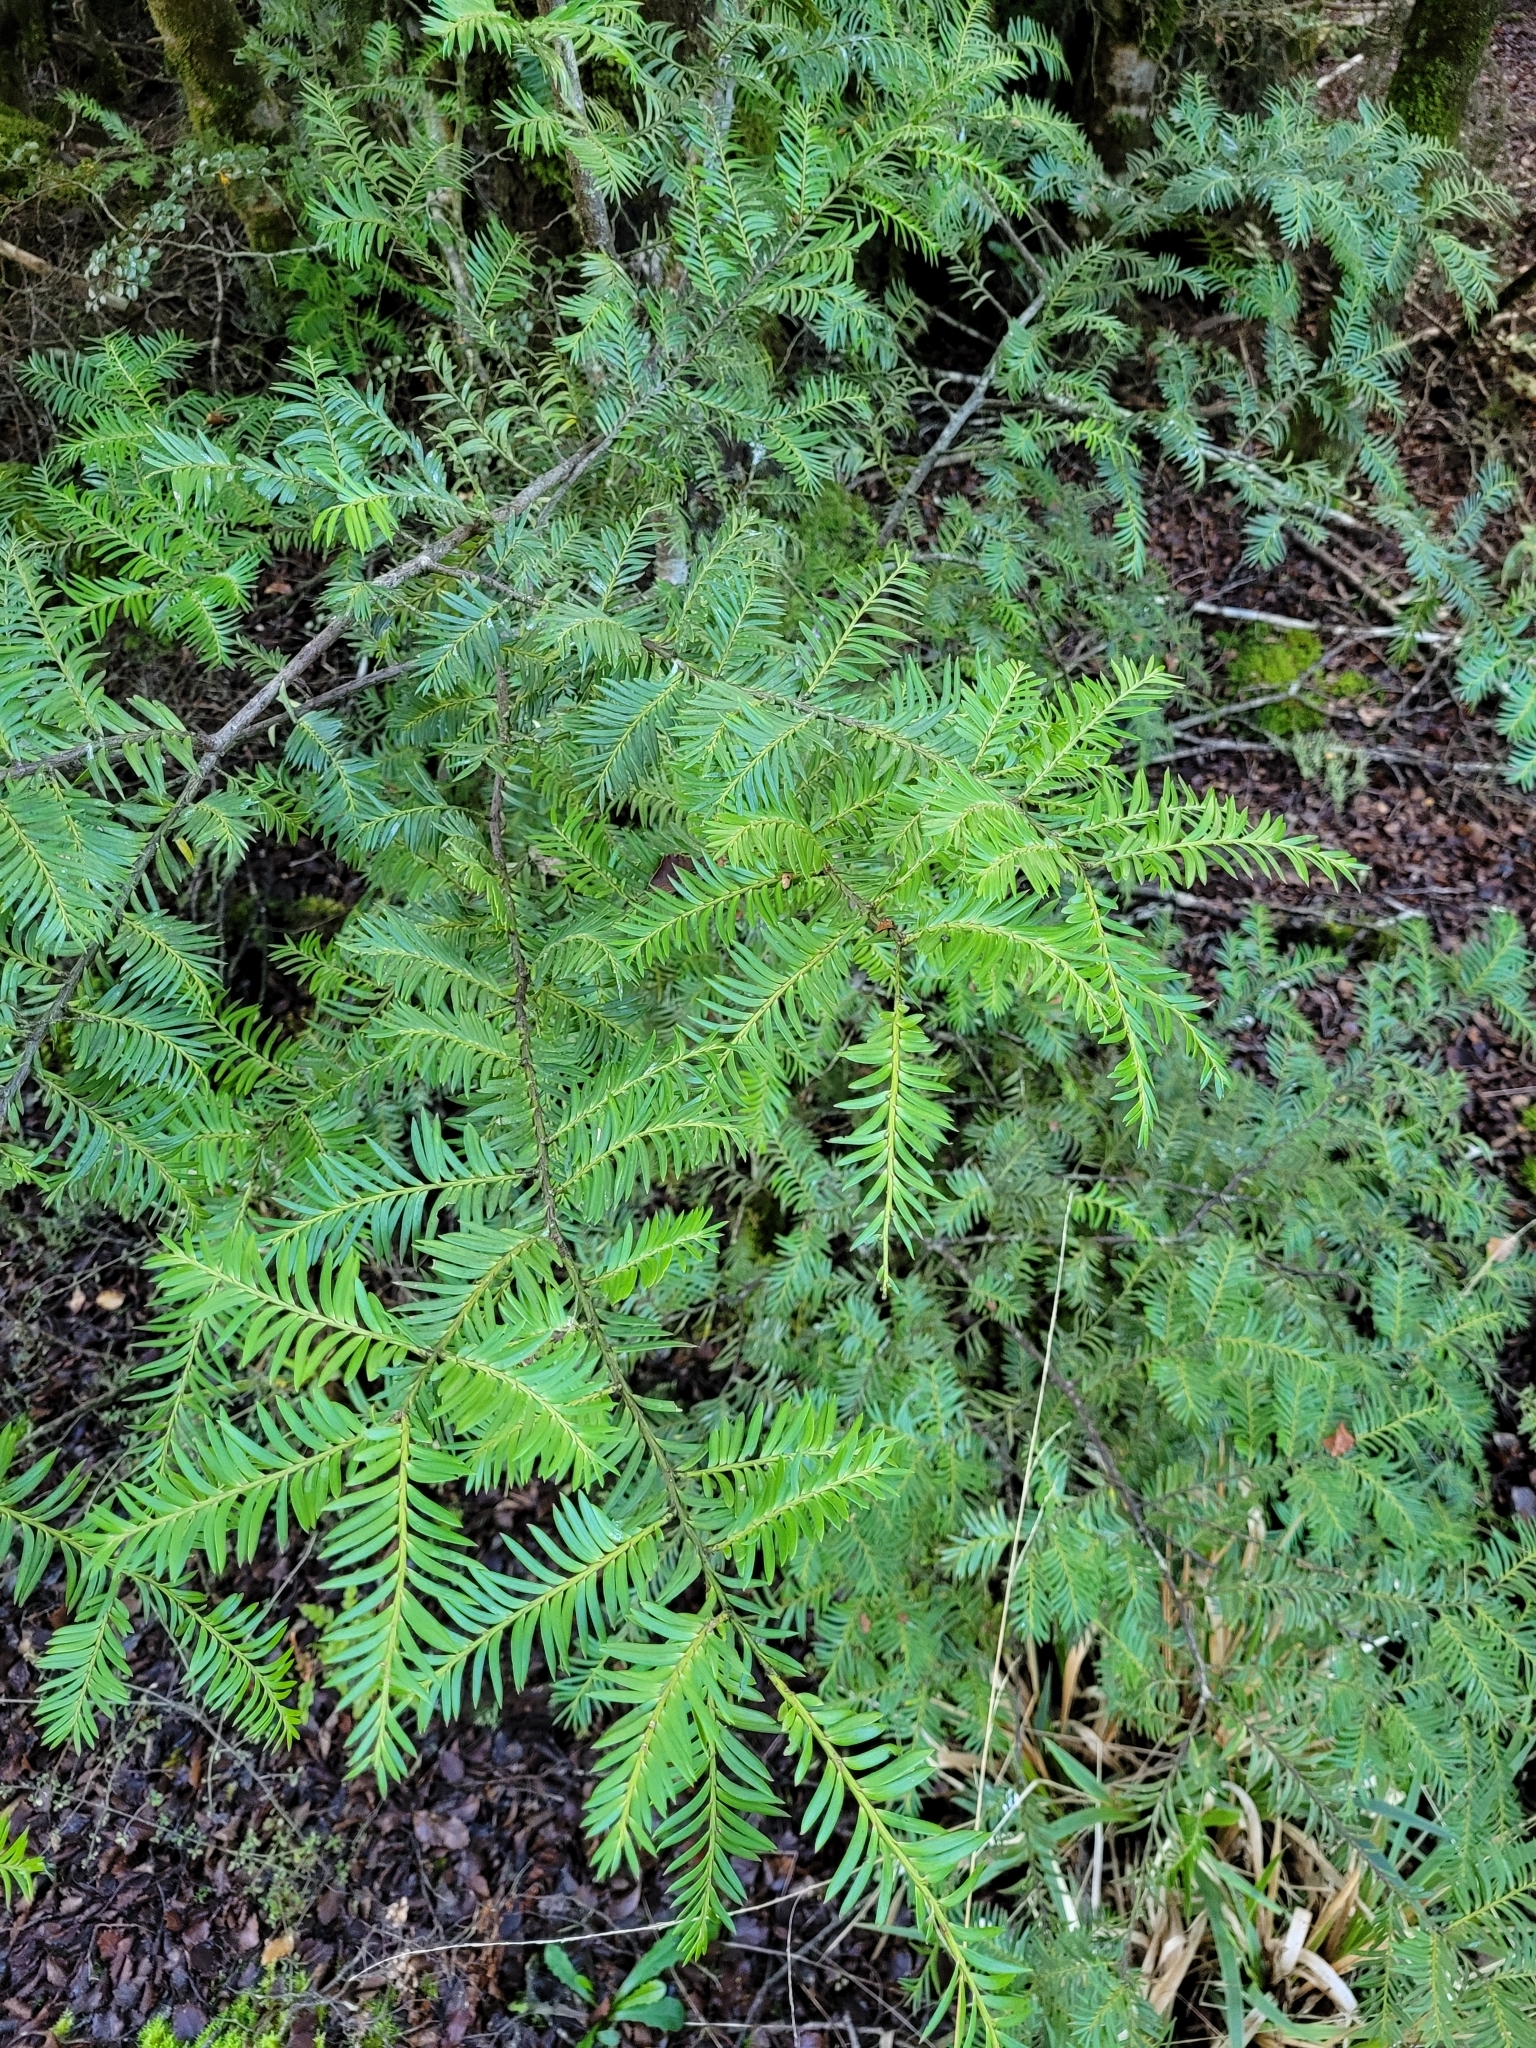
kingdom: Plantae
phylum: Tracheophyta
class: Pinopsida
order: Pinales
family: Podocarpaceae
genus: Prumnopitys
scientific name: Prumnopitys ferruginea
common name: Brown pine
